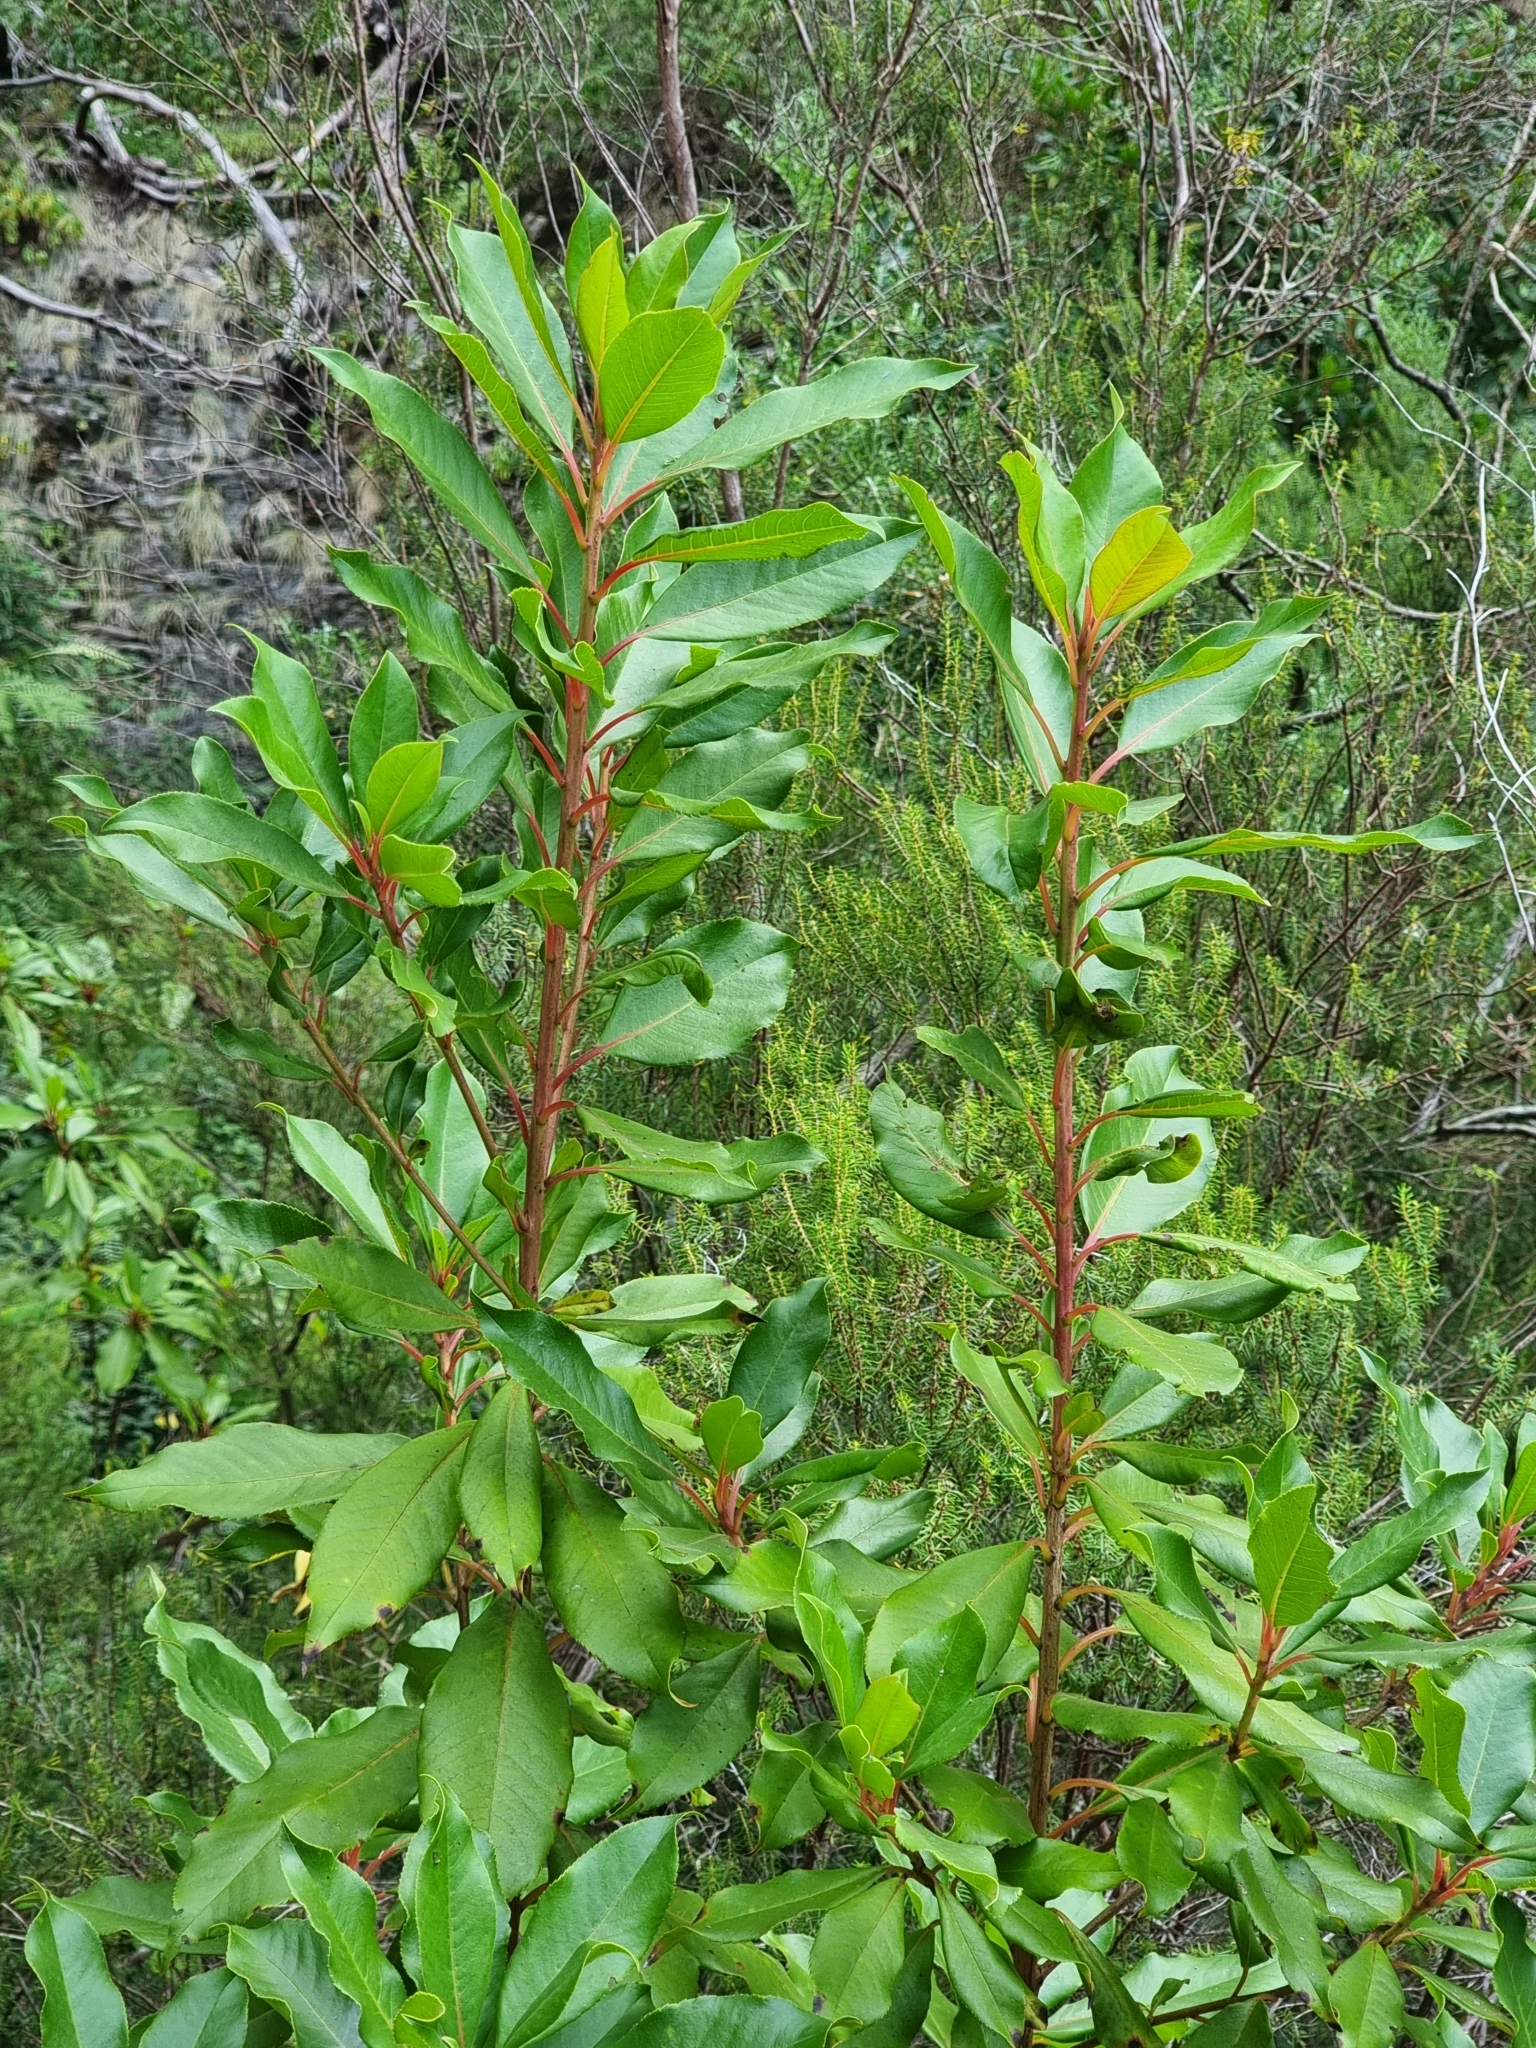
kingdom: Plantae
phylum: Tracheophyta
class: Magnoliopsida
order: Ericales
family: Clethraceae
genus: Clethra
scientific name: Clethra arborea
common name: Lily-of-the-valley-tree
